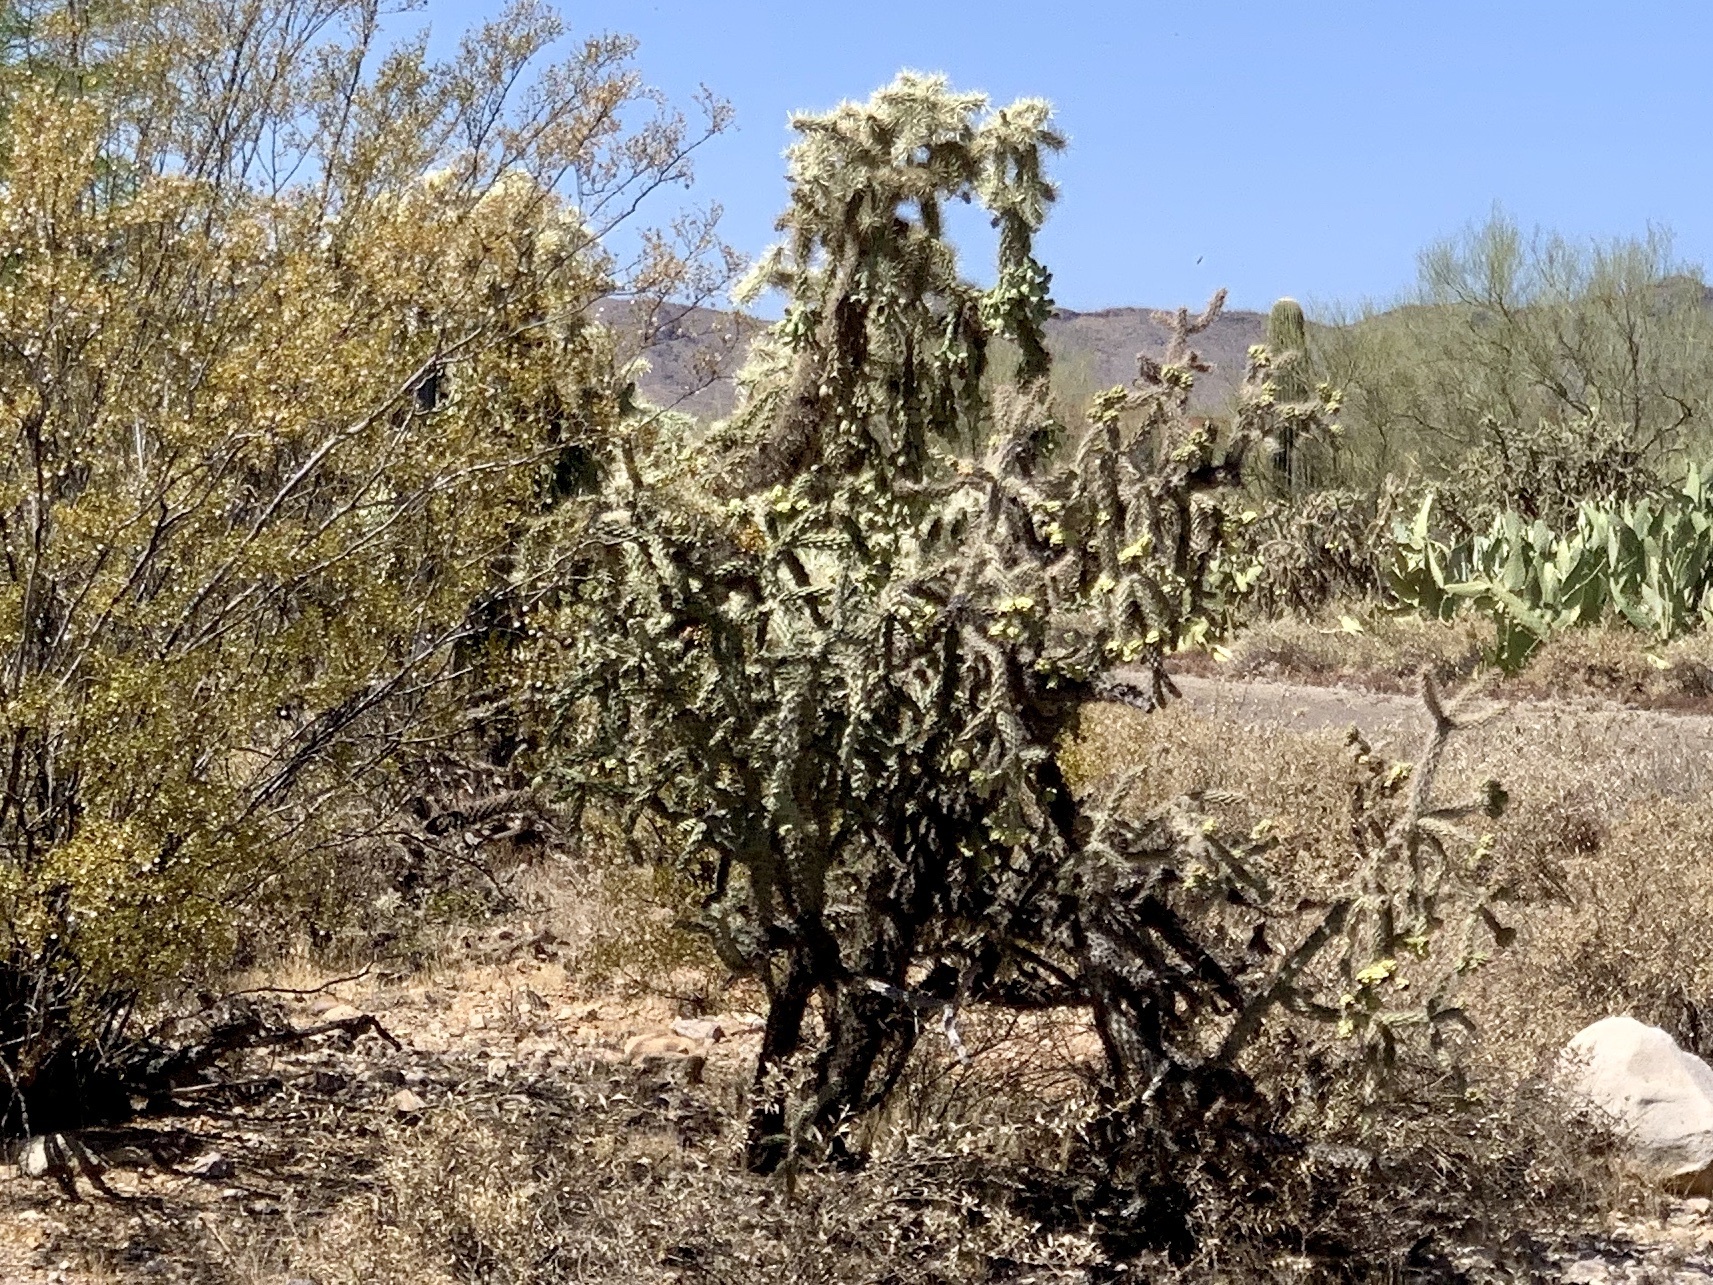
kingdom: Plantae
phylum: Tracheophyta
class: Magnoliopsida
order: Caryophyllales
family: Cactaceae
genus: Cylindropuntia
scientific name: Cylindropuntia fulgida
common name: Jumping cholla
